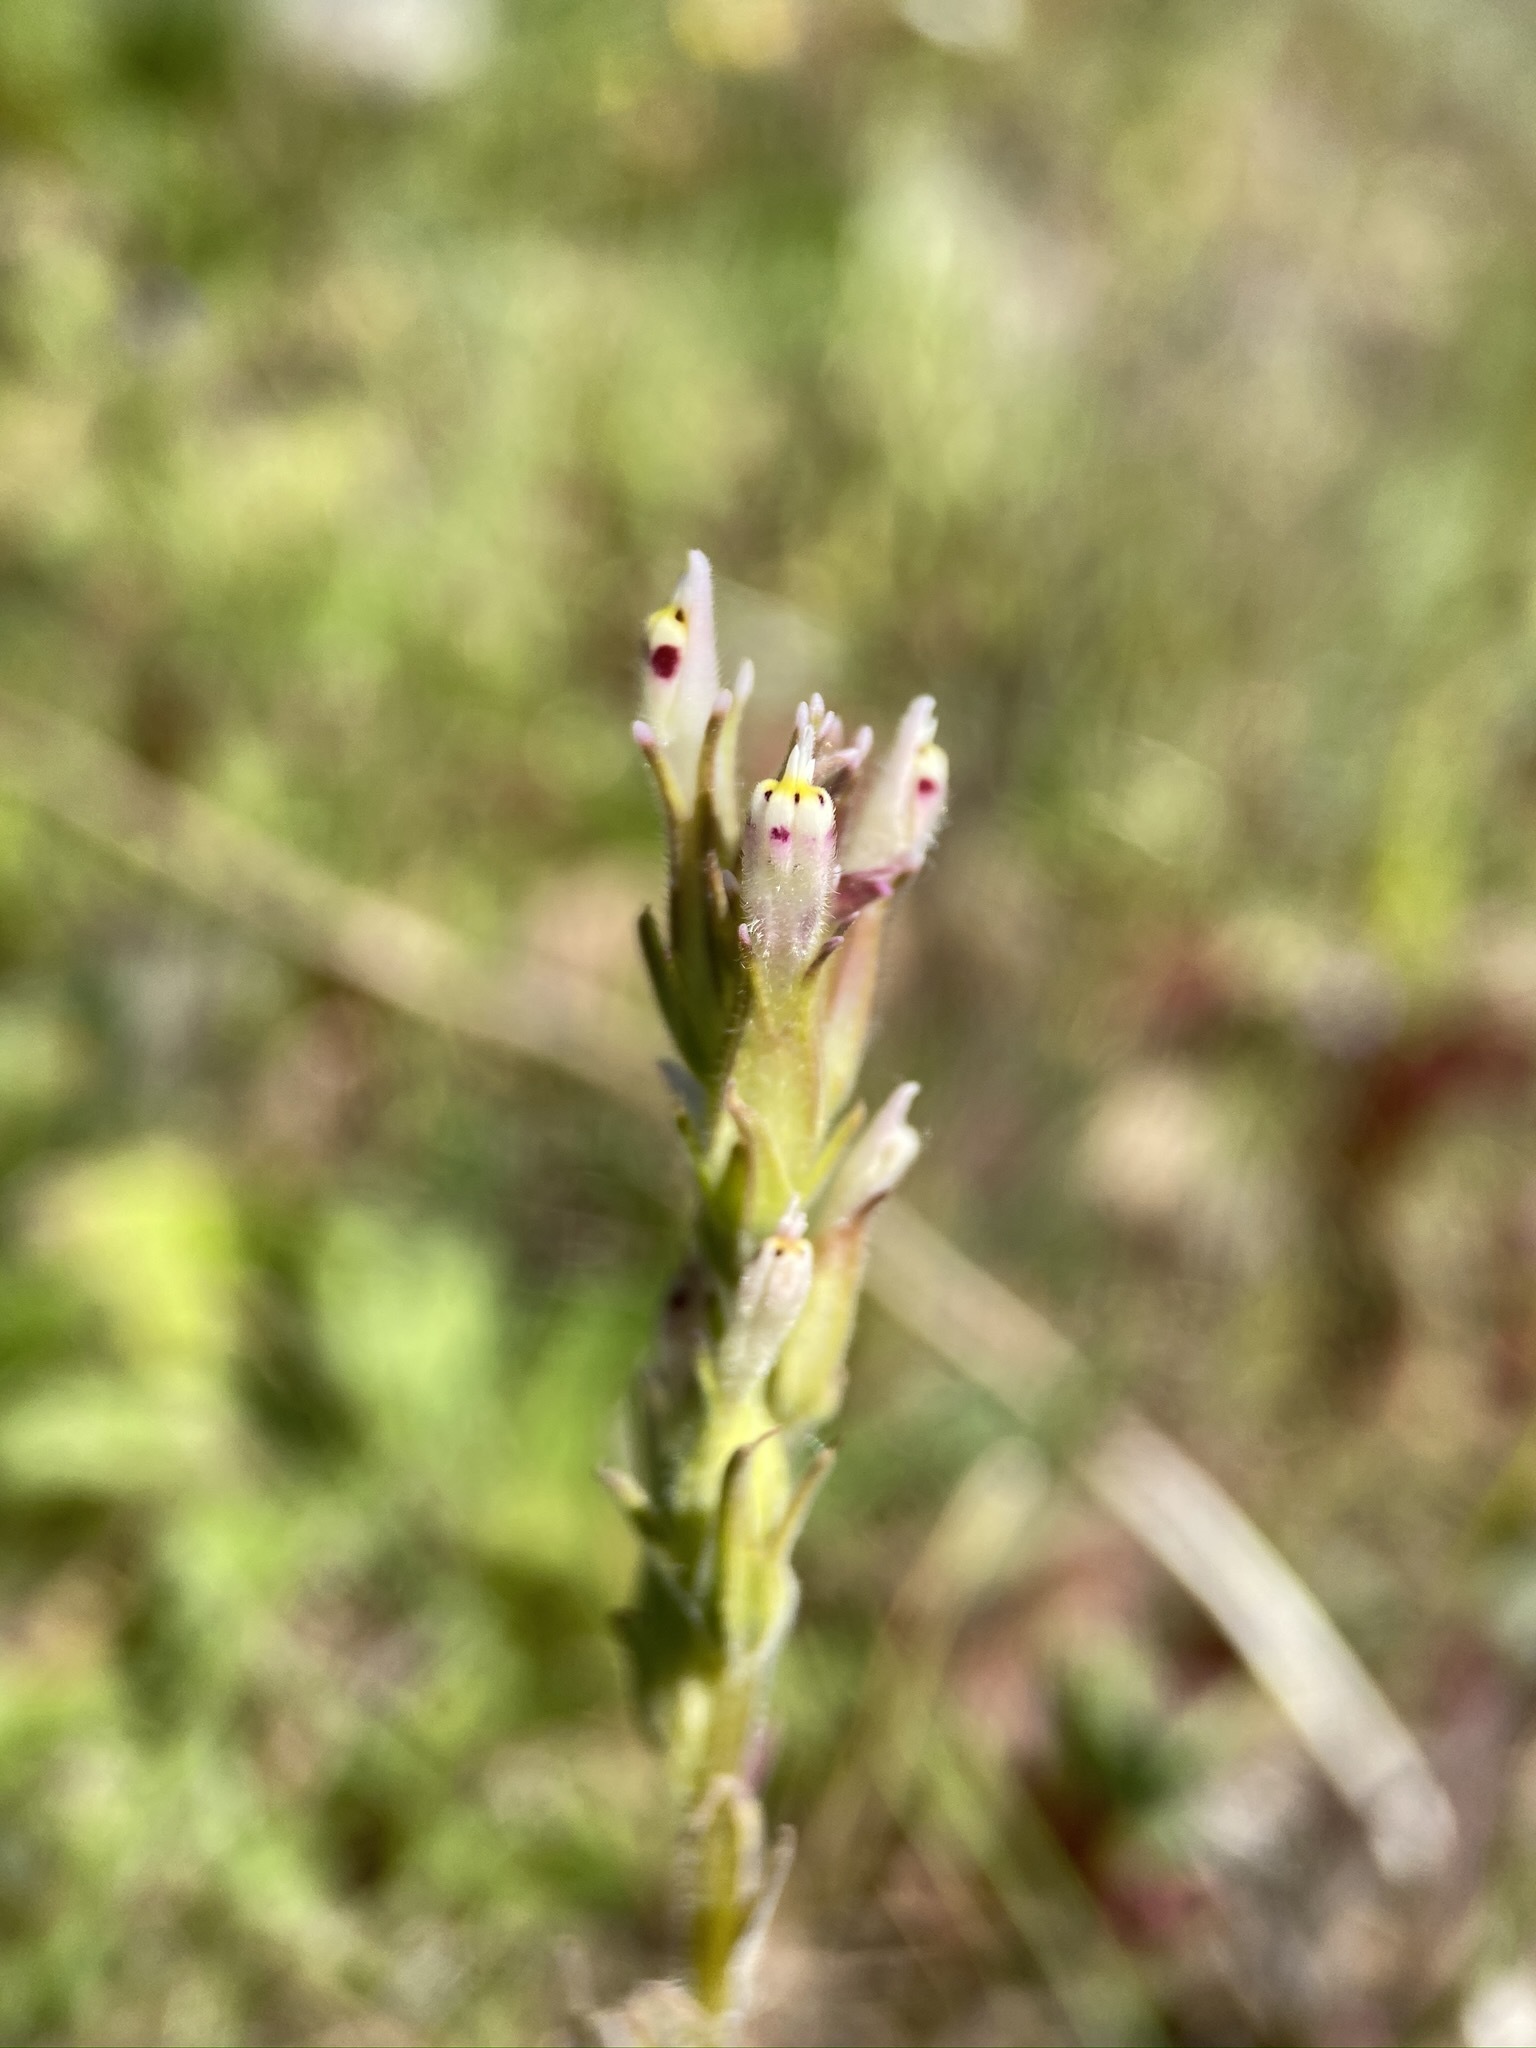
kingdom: Plantae
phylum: Tracheophyta
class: Magnoliopsida
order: Lamiales
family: Orobanchaceae
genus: Castilleja
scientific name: Castilleja attenuata
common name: Valley tassels
